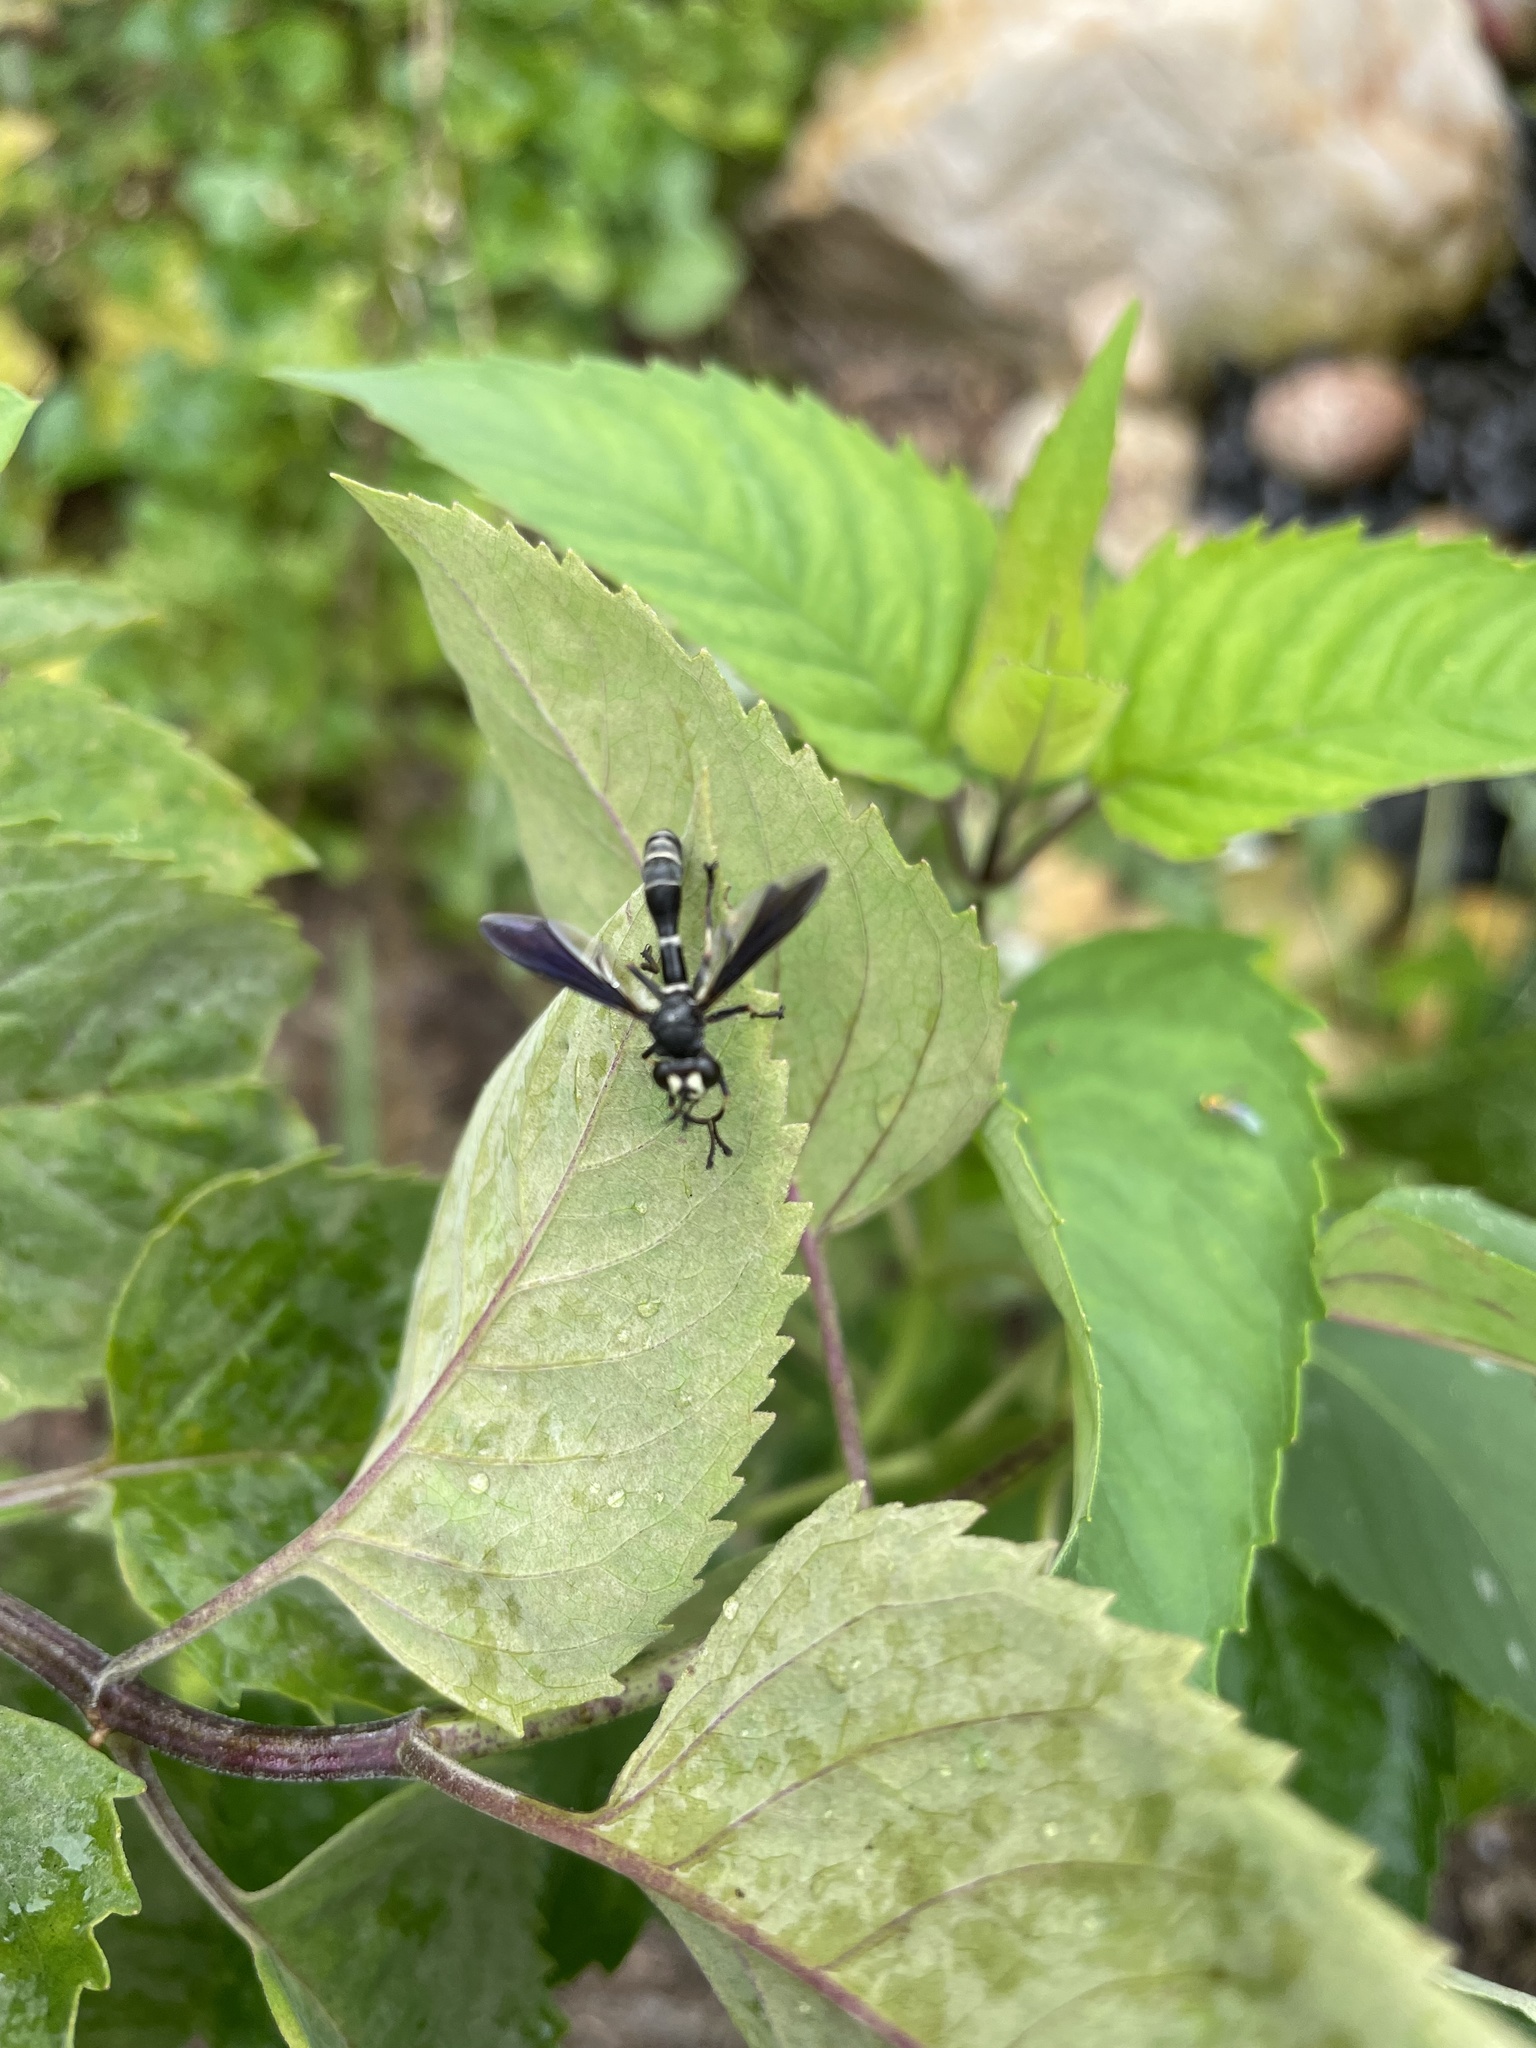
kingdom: Animalia
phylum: Arthropoda
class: Insecta
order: Diptera
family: Conopidae
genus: Physocephala
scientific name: Physocephala tibialis
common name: Common eastern physocephala
